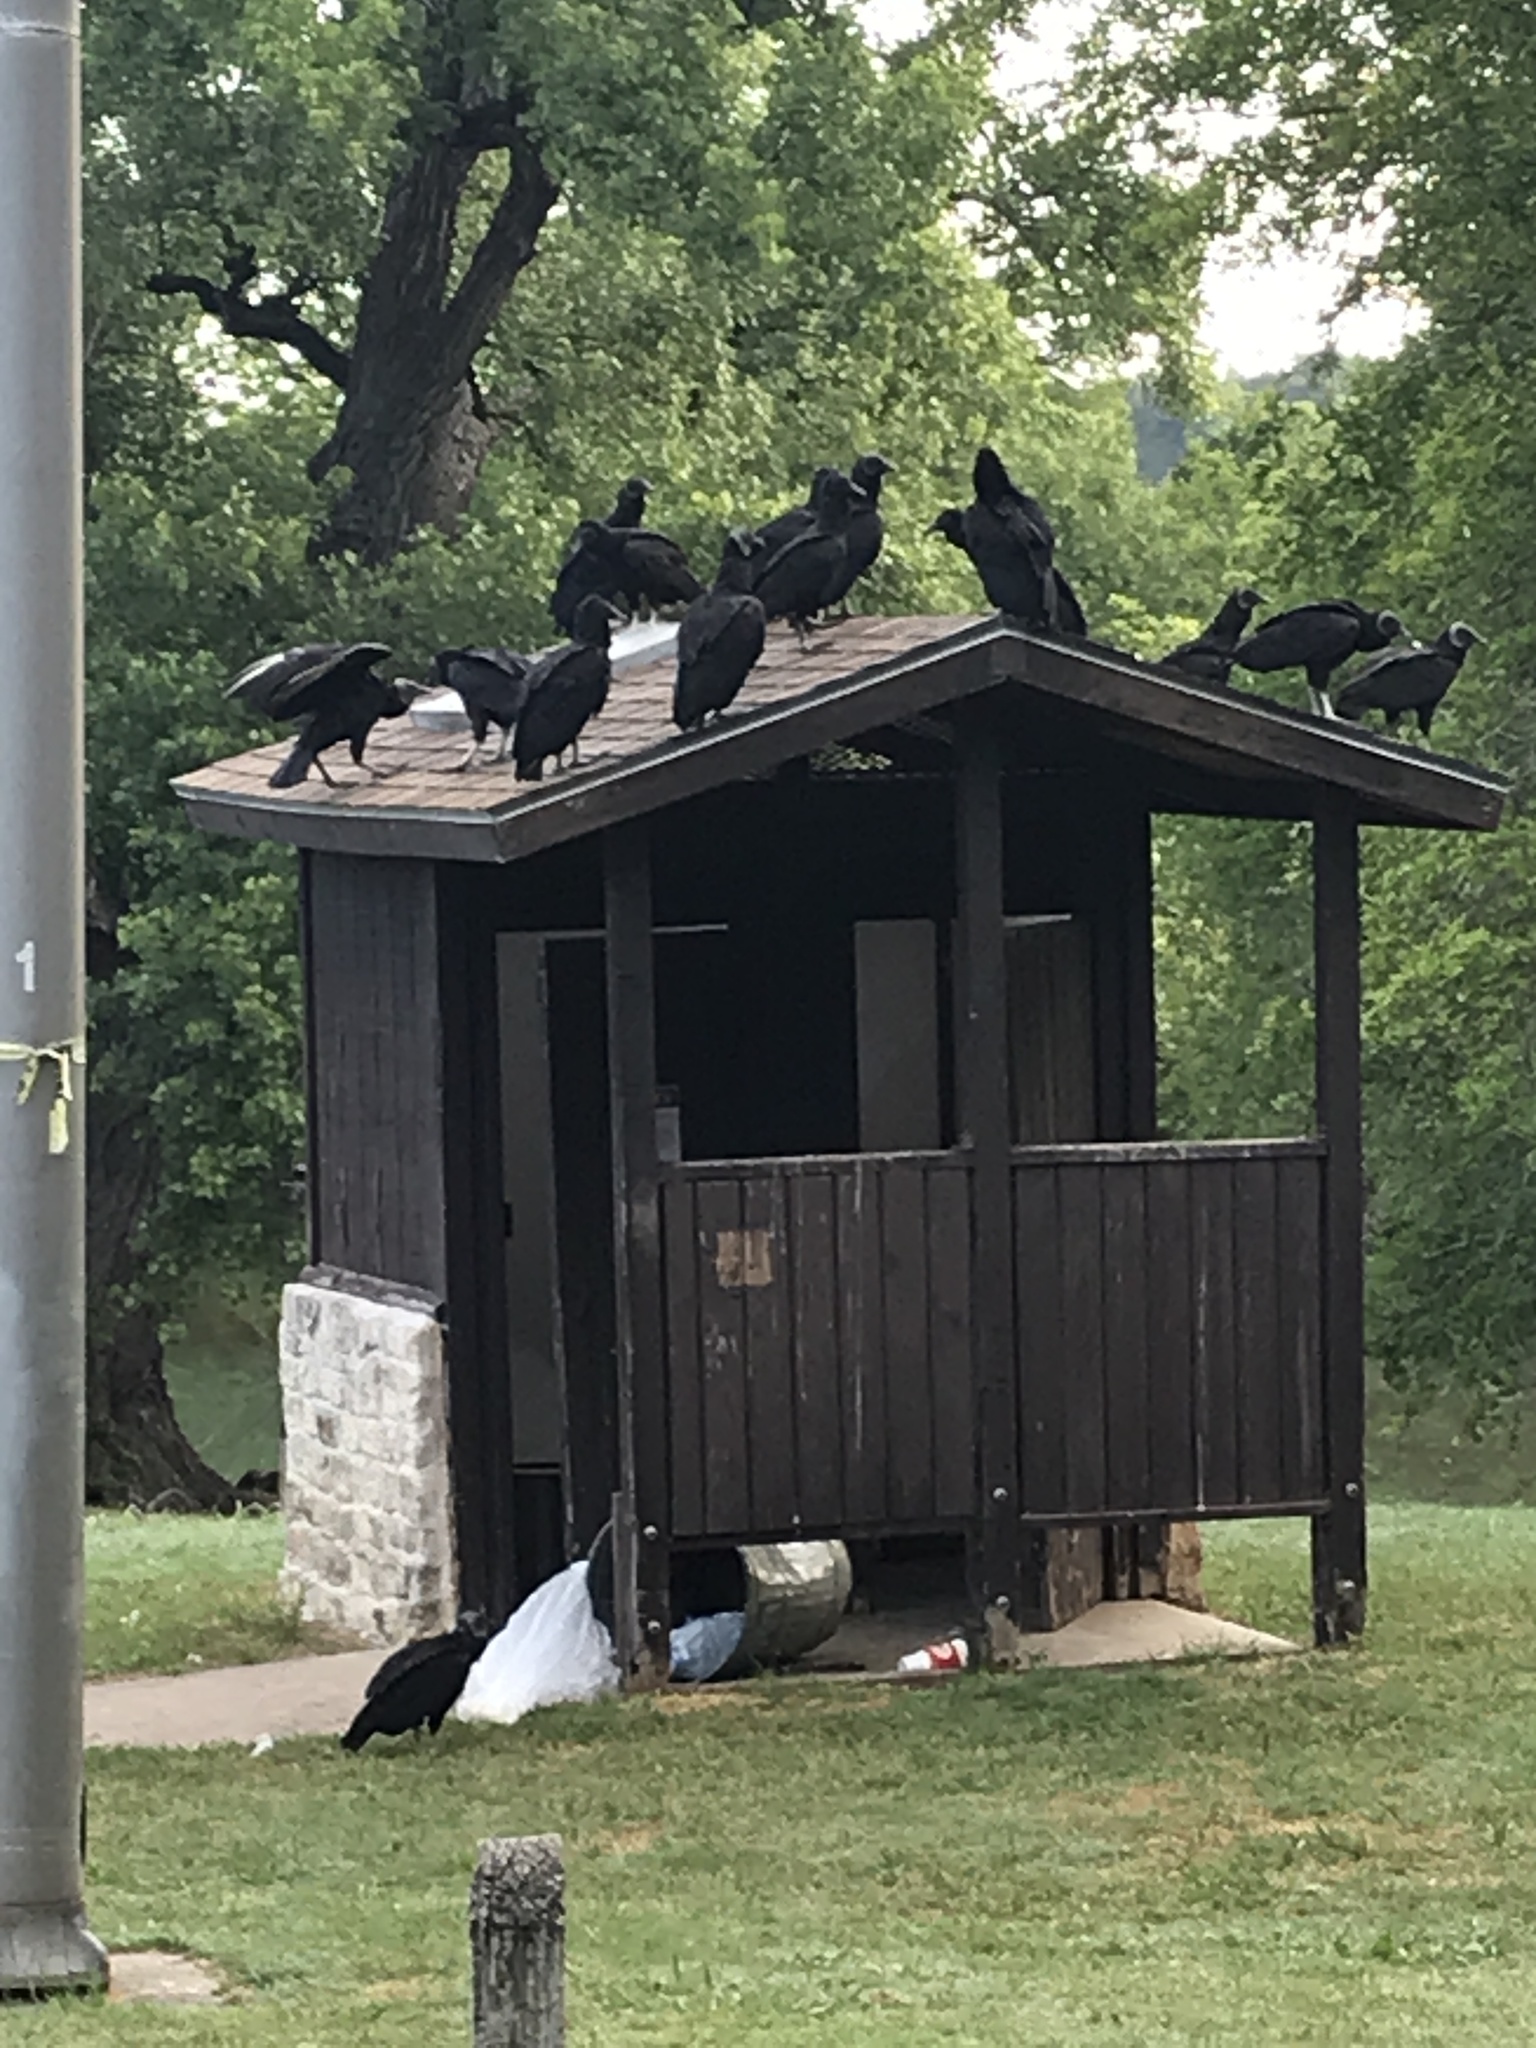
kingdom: Animalia
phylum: Chordata
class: Aves
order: Accipitriformes
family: Cathartidae
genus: Coragyps
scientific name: Coragyps atratus
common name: Black vulture
